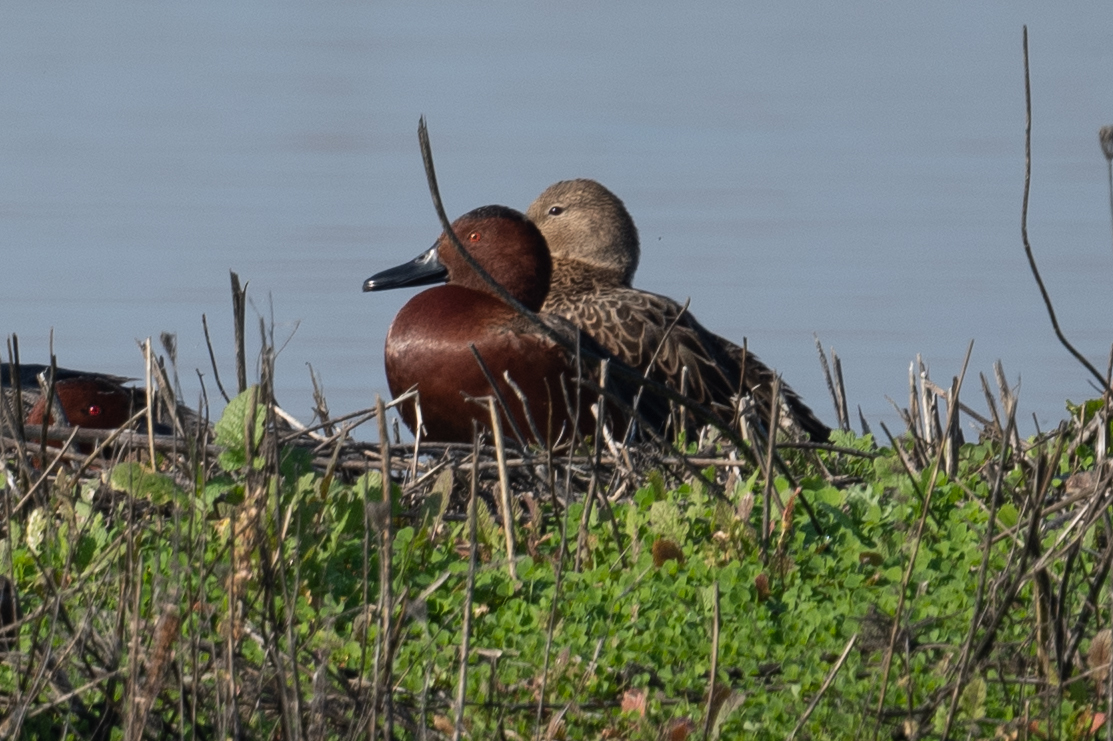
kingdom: Animalia
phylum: Chordata
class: Aves
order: Anseriformes
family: Anatidae
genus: Spatula
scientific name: Spatula cyanoptera
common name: Cinnamon teal
